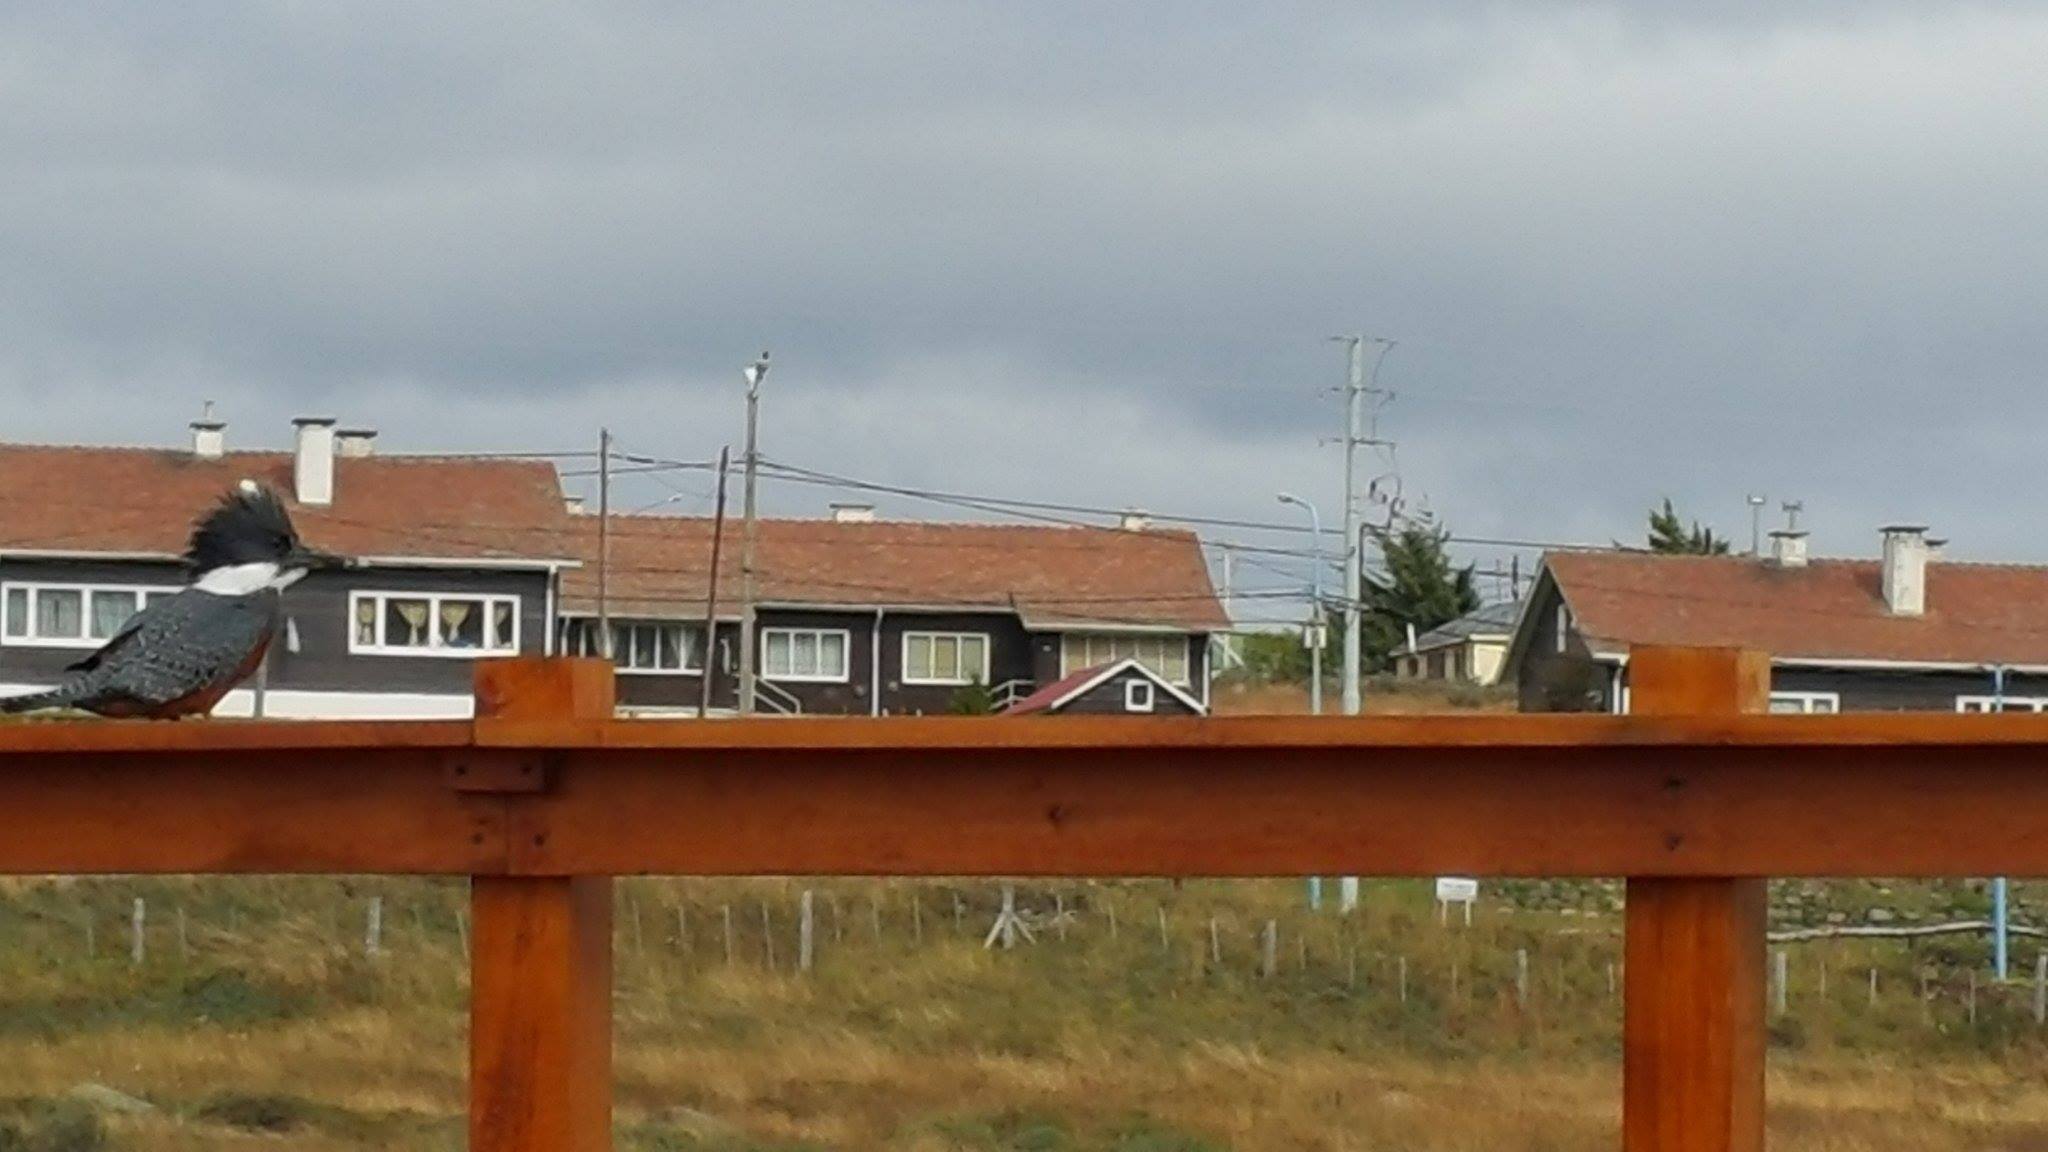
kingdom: Animalia
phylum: Chordata
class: Aves
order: Coraciiformes
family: Alcedinidae
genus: Megaceryle
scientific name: Megaceryle torquata
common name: Ringed kingfisher
